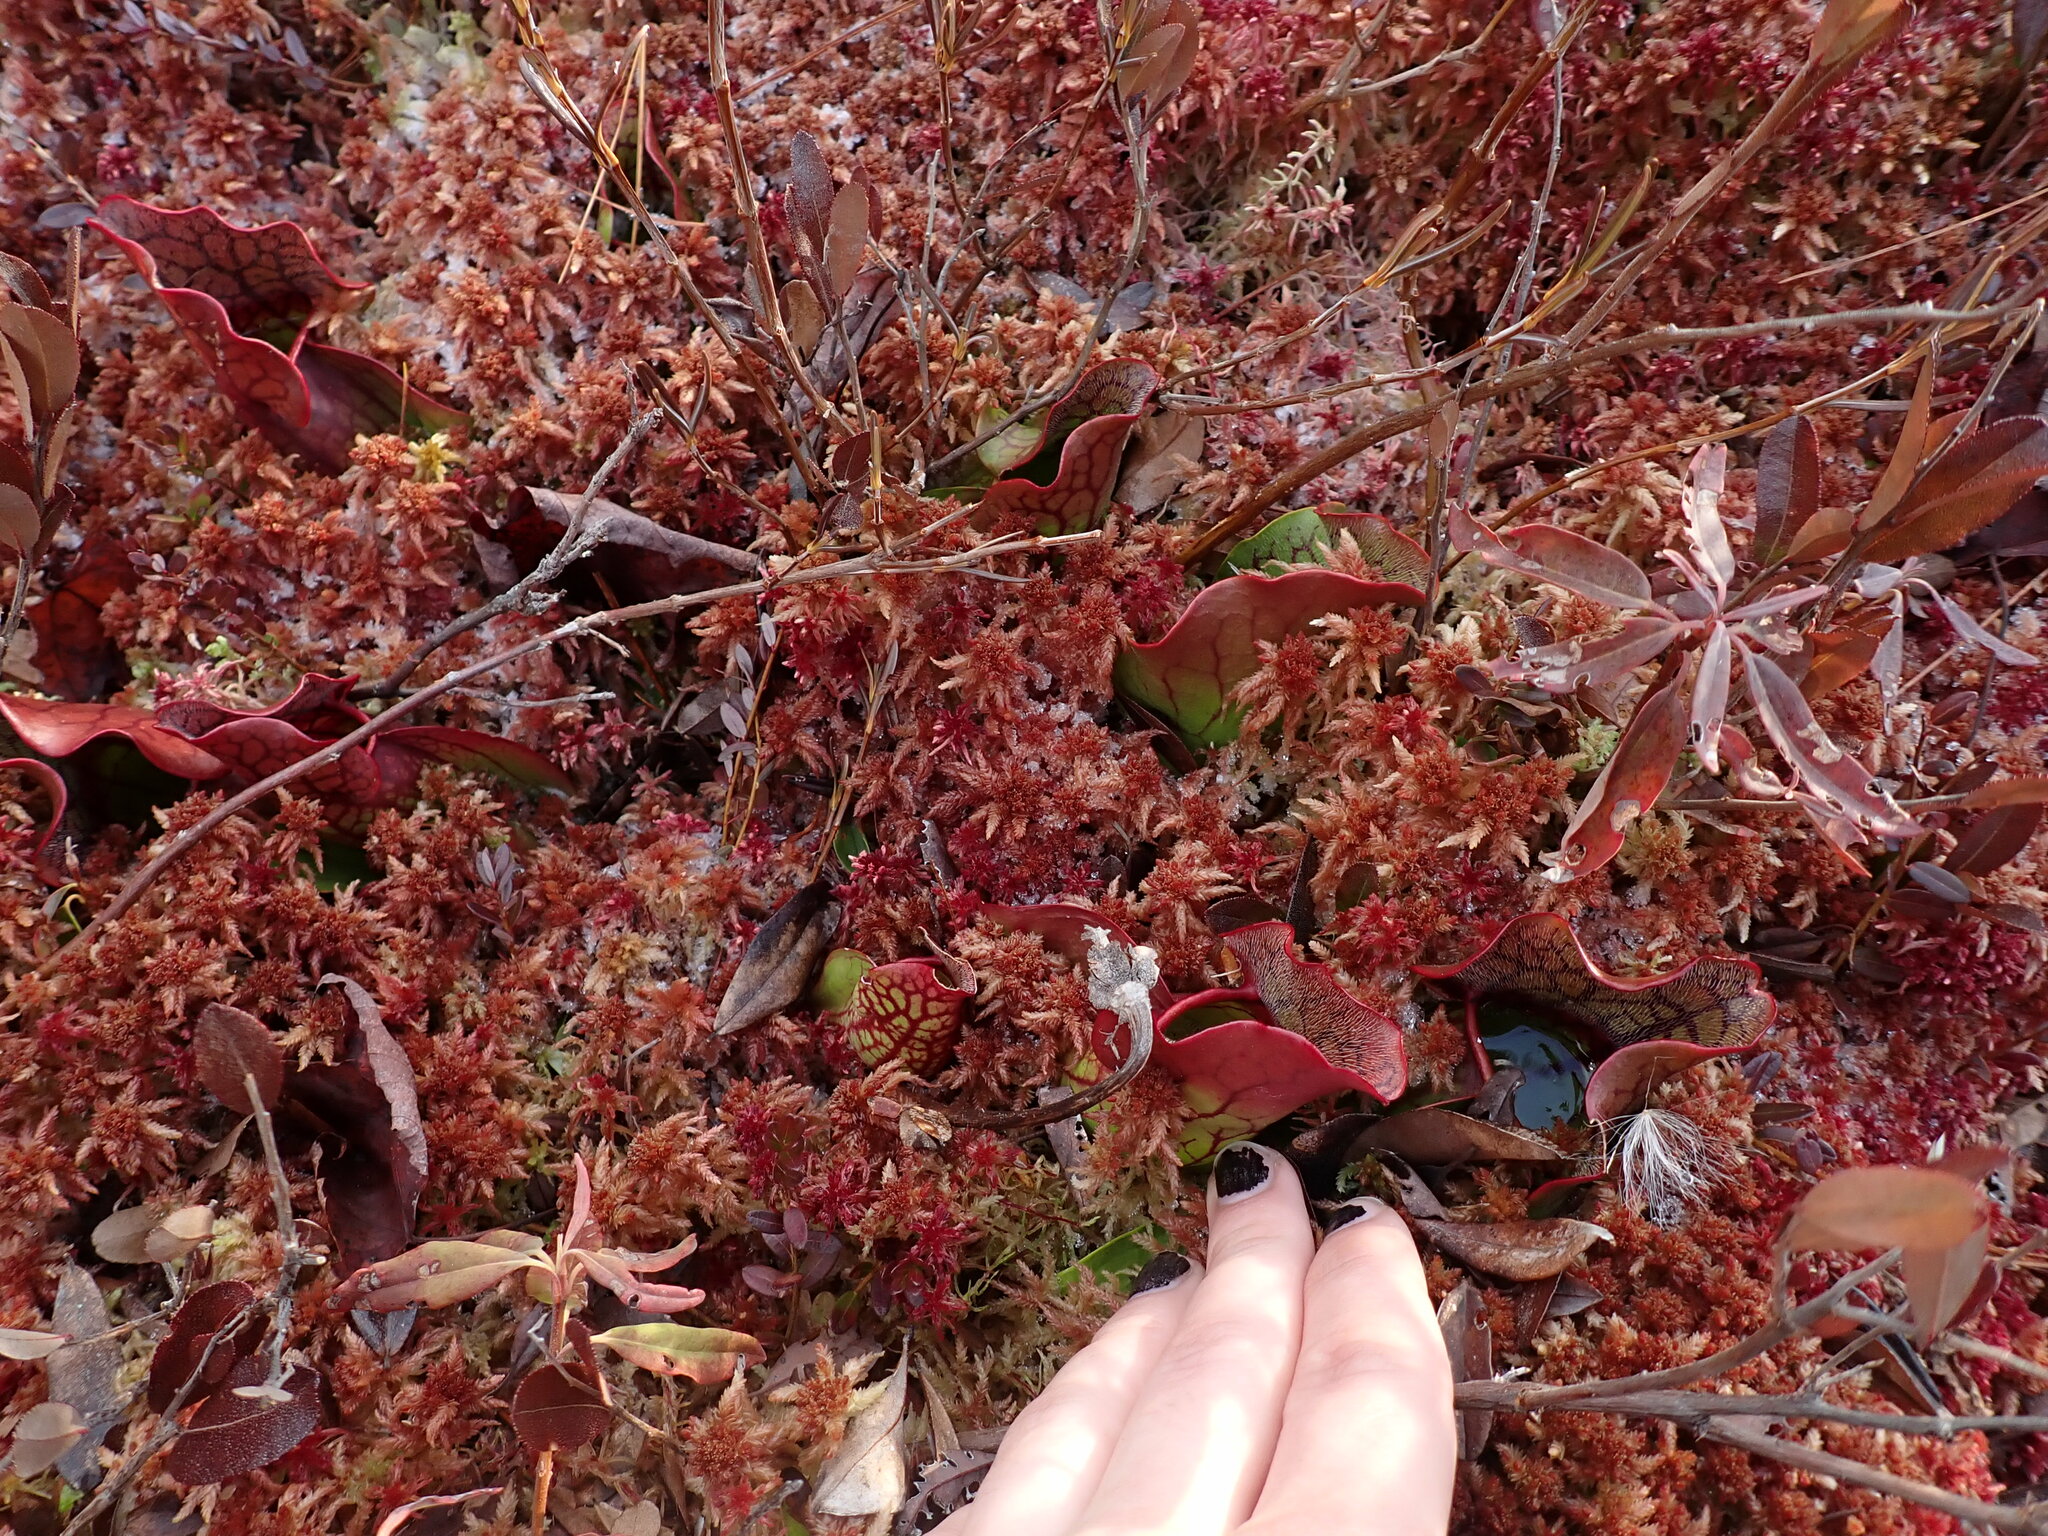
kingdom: Plantae
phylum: Tracheophyta
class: Magnoliopsida
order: Ericales
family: Sarraceniaceae
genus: Sarracenia
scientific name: Sarracenia purpurea
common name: Pitcherplant
